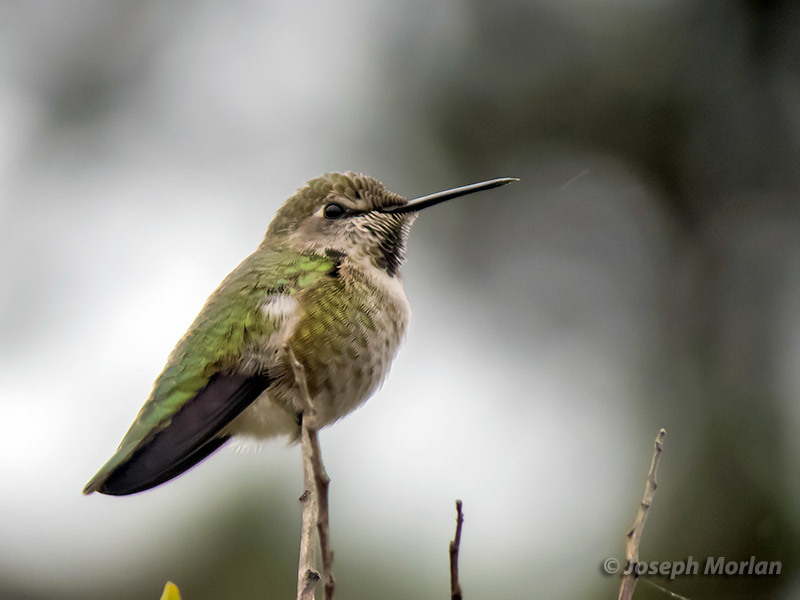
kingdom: Animalia
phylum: Chordata
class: Aves
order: Apodiformes
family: Trochilidae
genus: Calypte
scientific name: Calypte anna
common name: Anna's hummingbird
